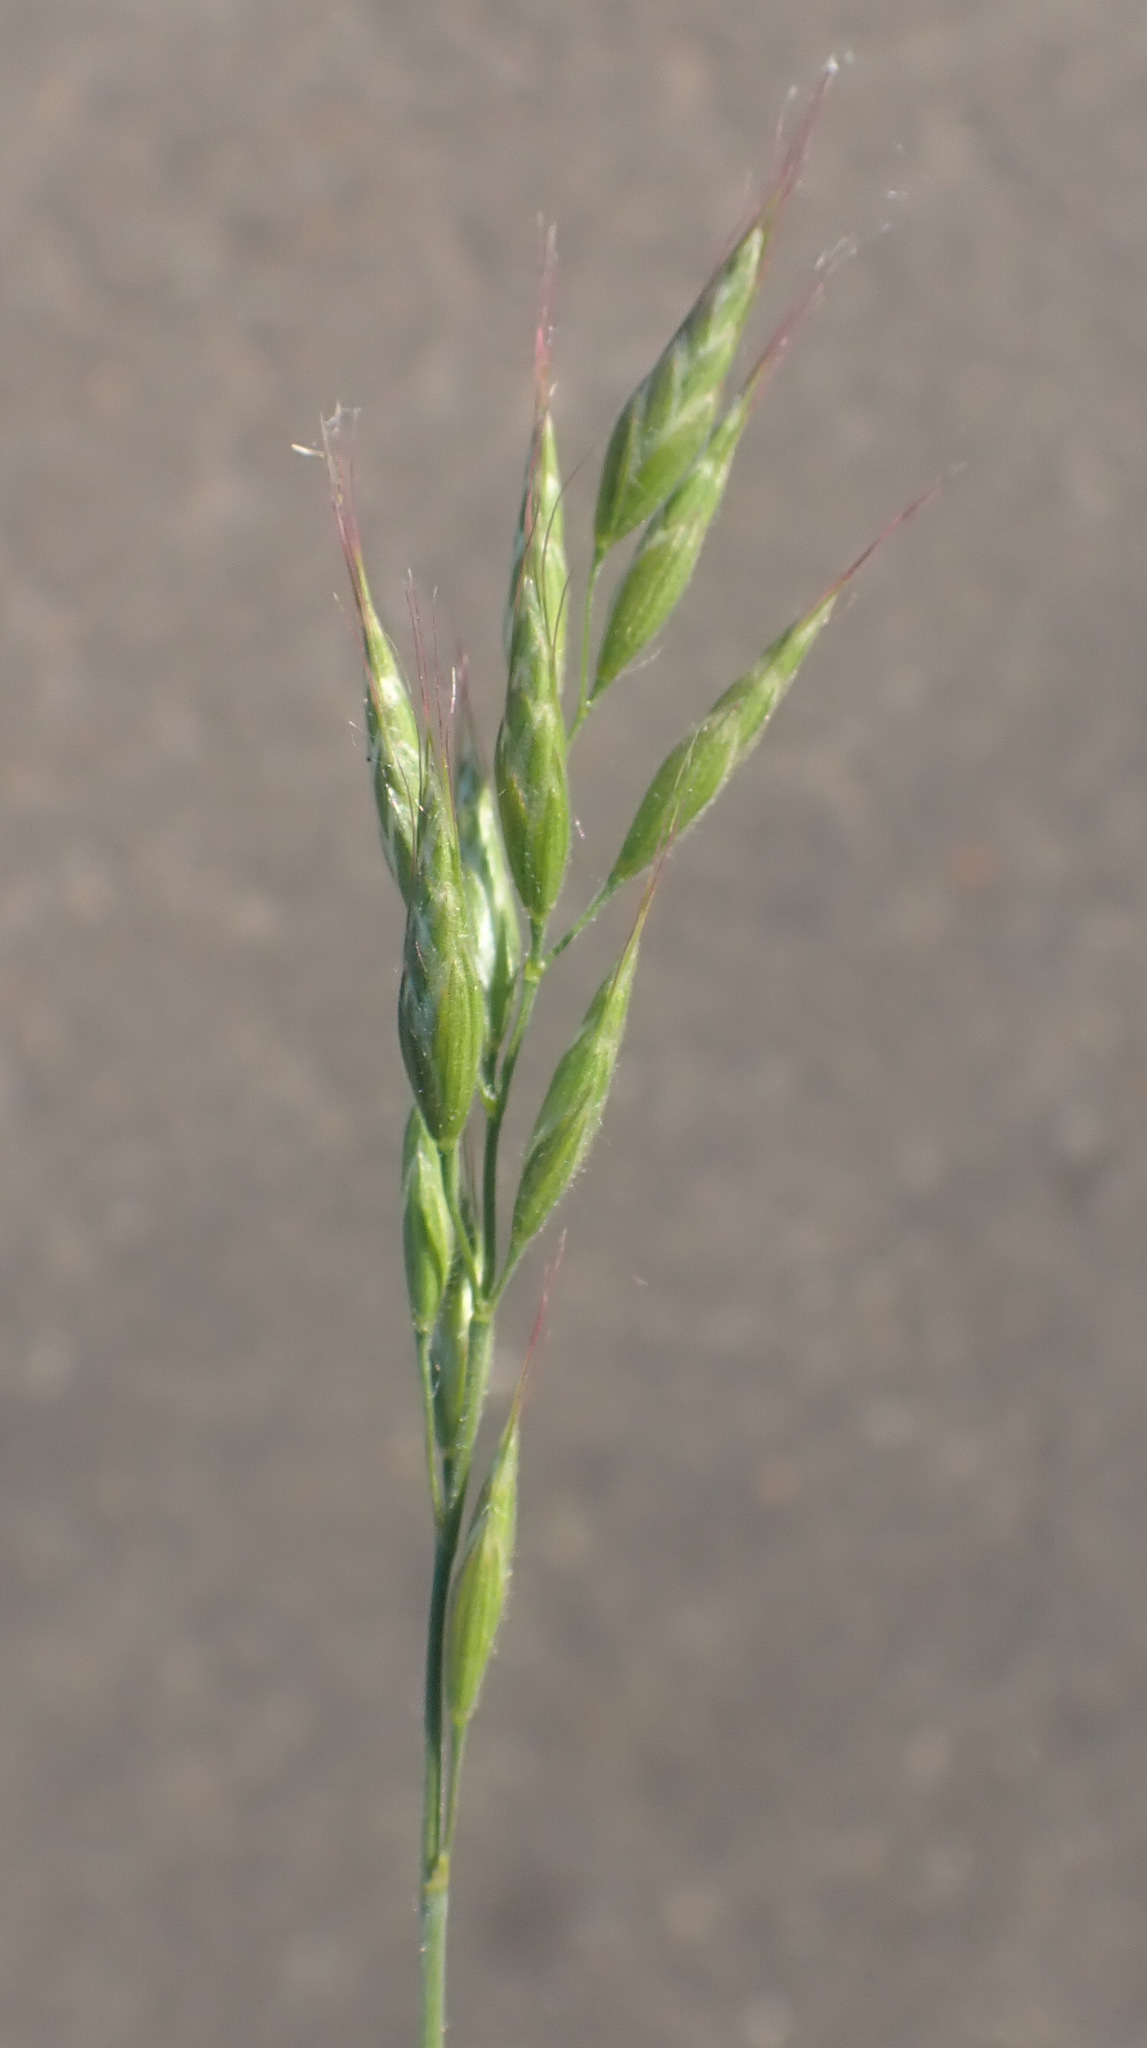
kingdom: Plantae
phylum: Tracheophyta
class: Liliopsida
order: Poales
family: Poaceae
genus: Bromus
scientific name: Bromus hordeaceus
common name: Soft brome
